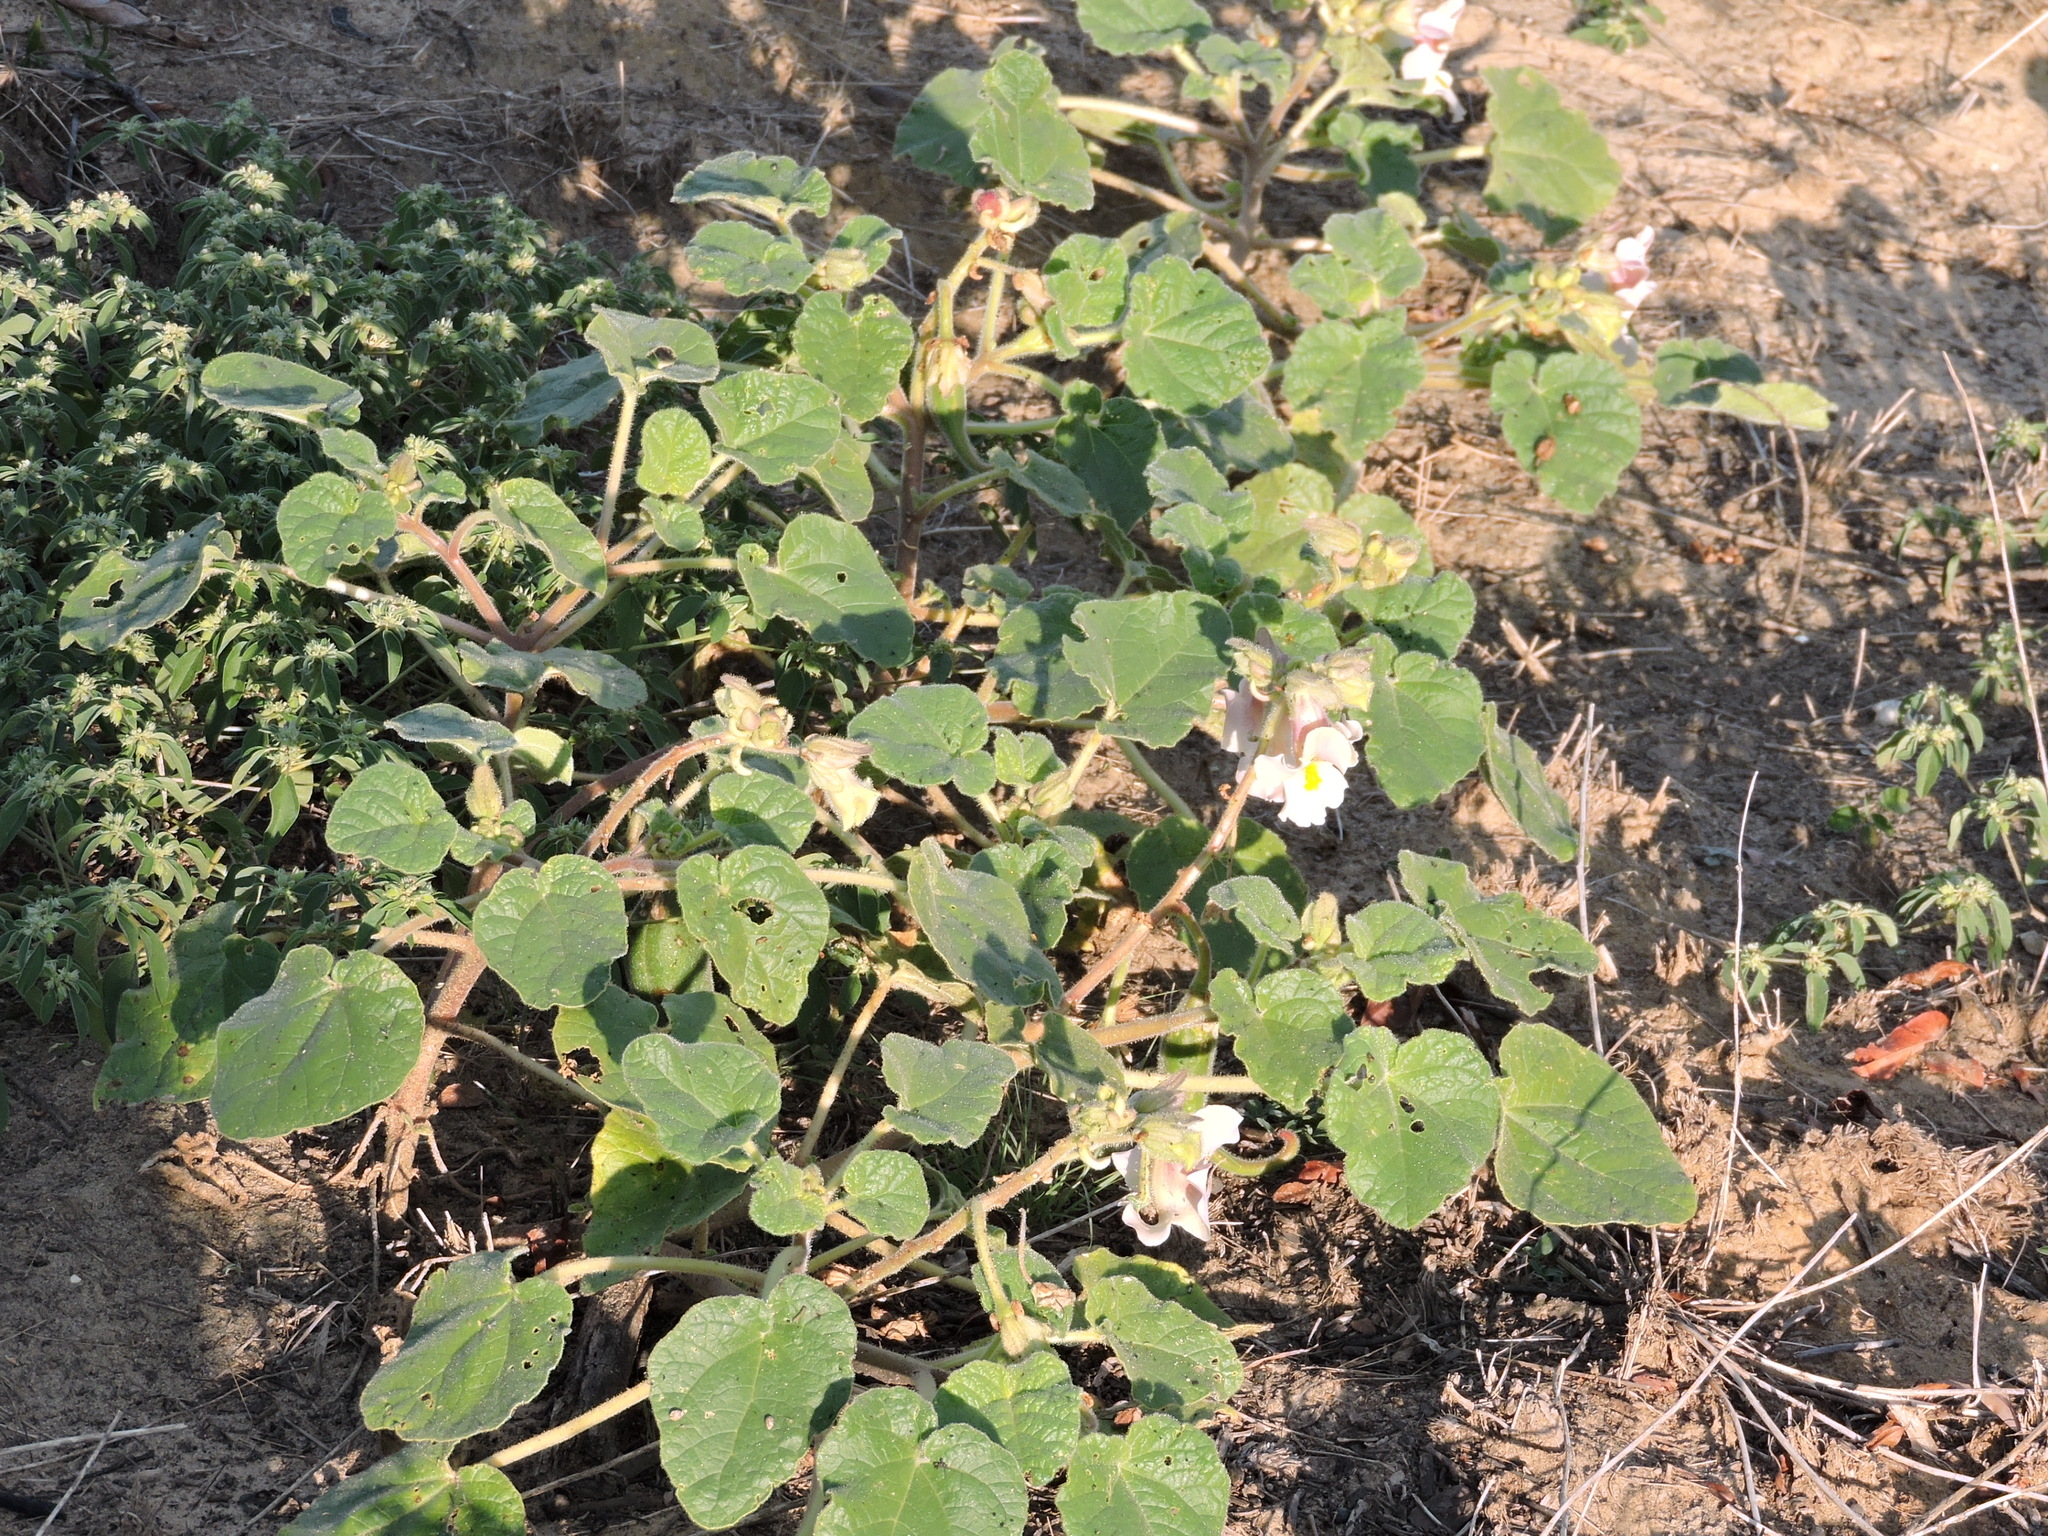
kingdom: Plantae
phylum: Tracheophyta
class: Magnoliopsida
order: Lamiales
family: Martyniaceae
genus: Proboscidea
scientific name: Proboscidea louisianica
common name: Elephant tusks
